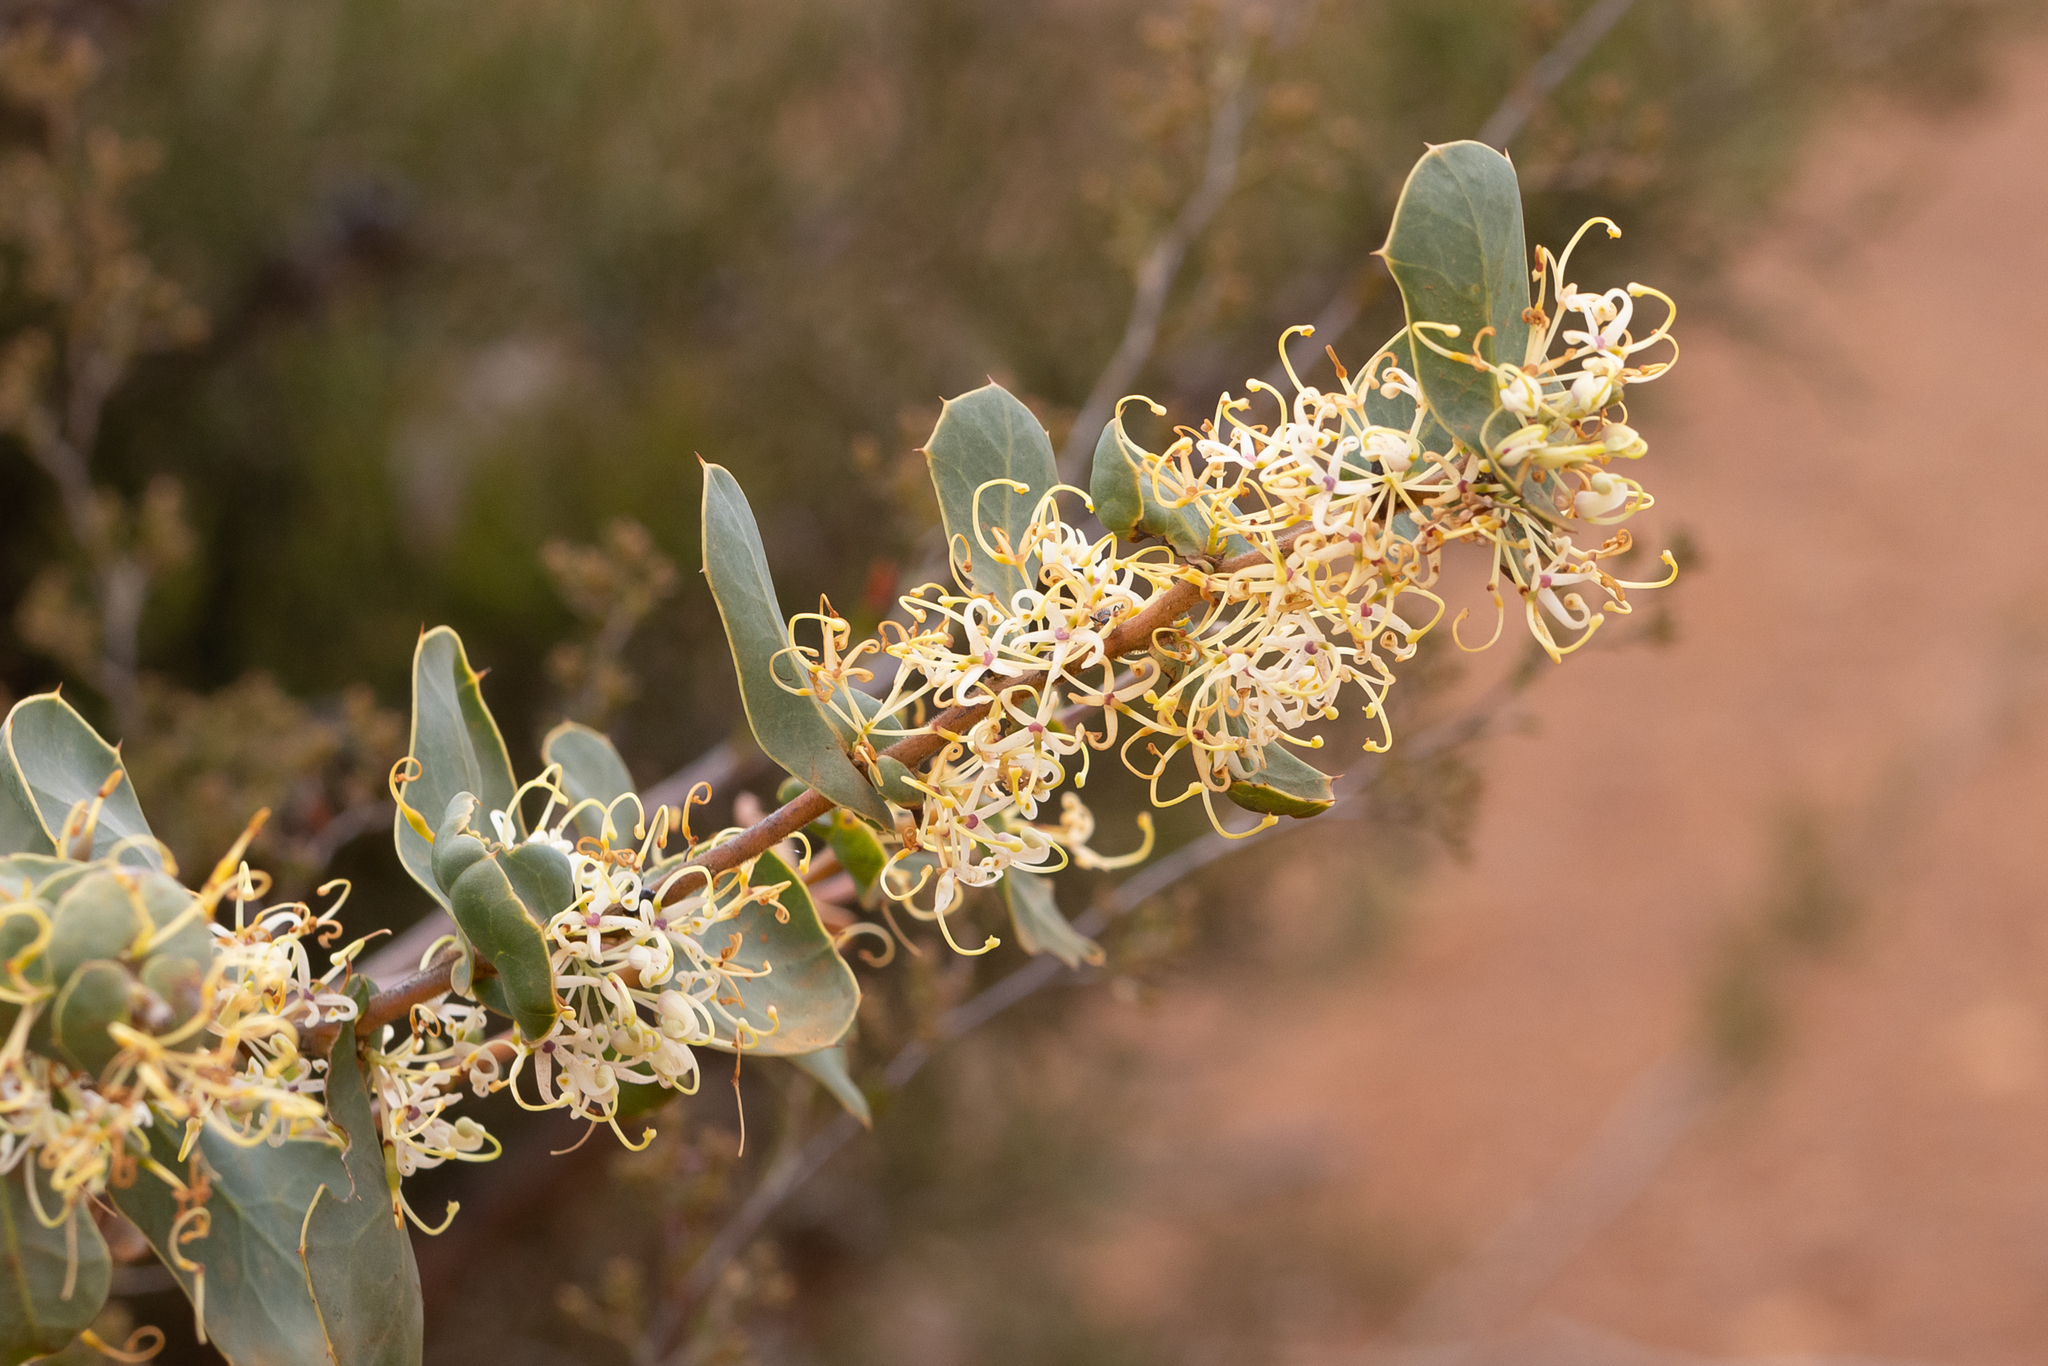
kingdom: Plantae
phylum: Tracheophyta
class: Magnoliopsida
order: Proteales
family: Proteaceae
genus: Hakea
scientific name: Hakea prostrata
